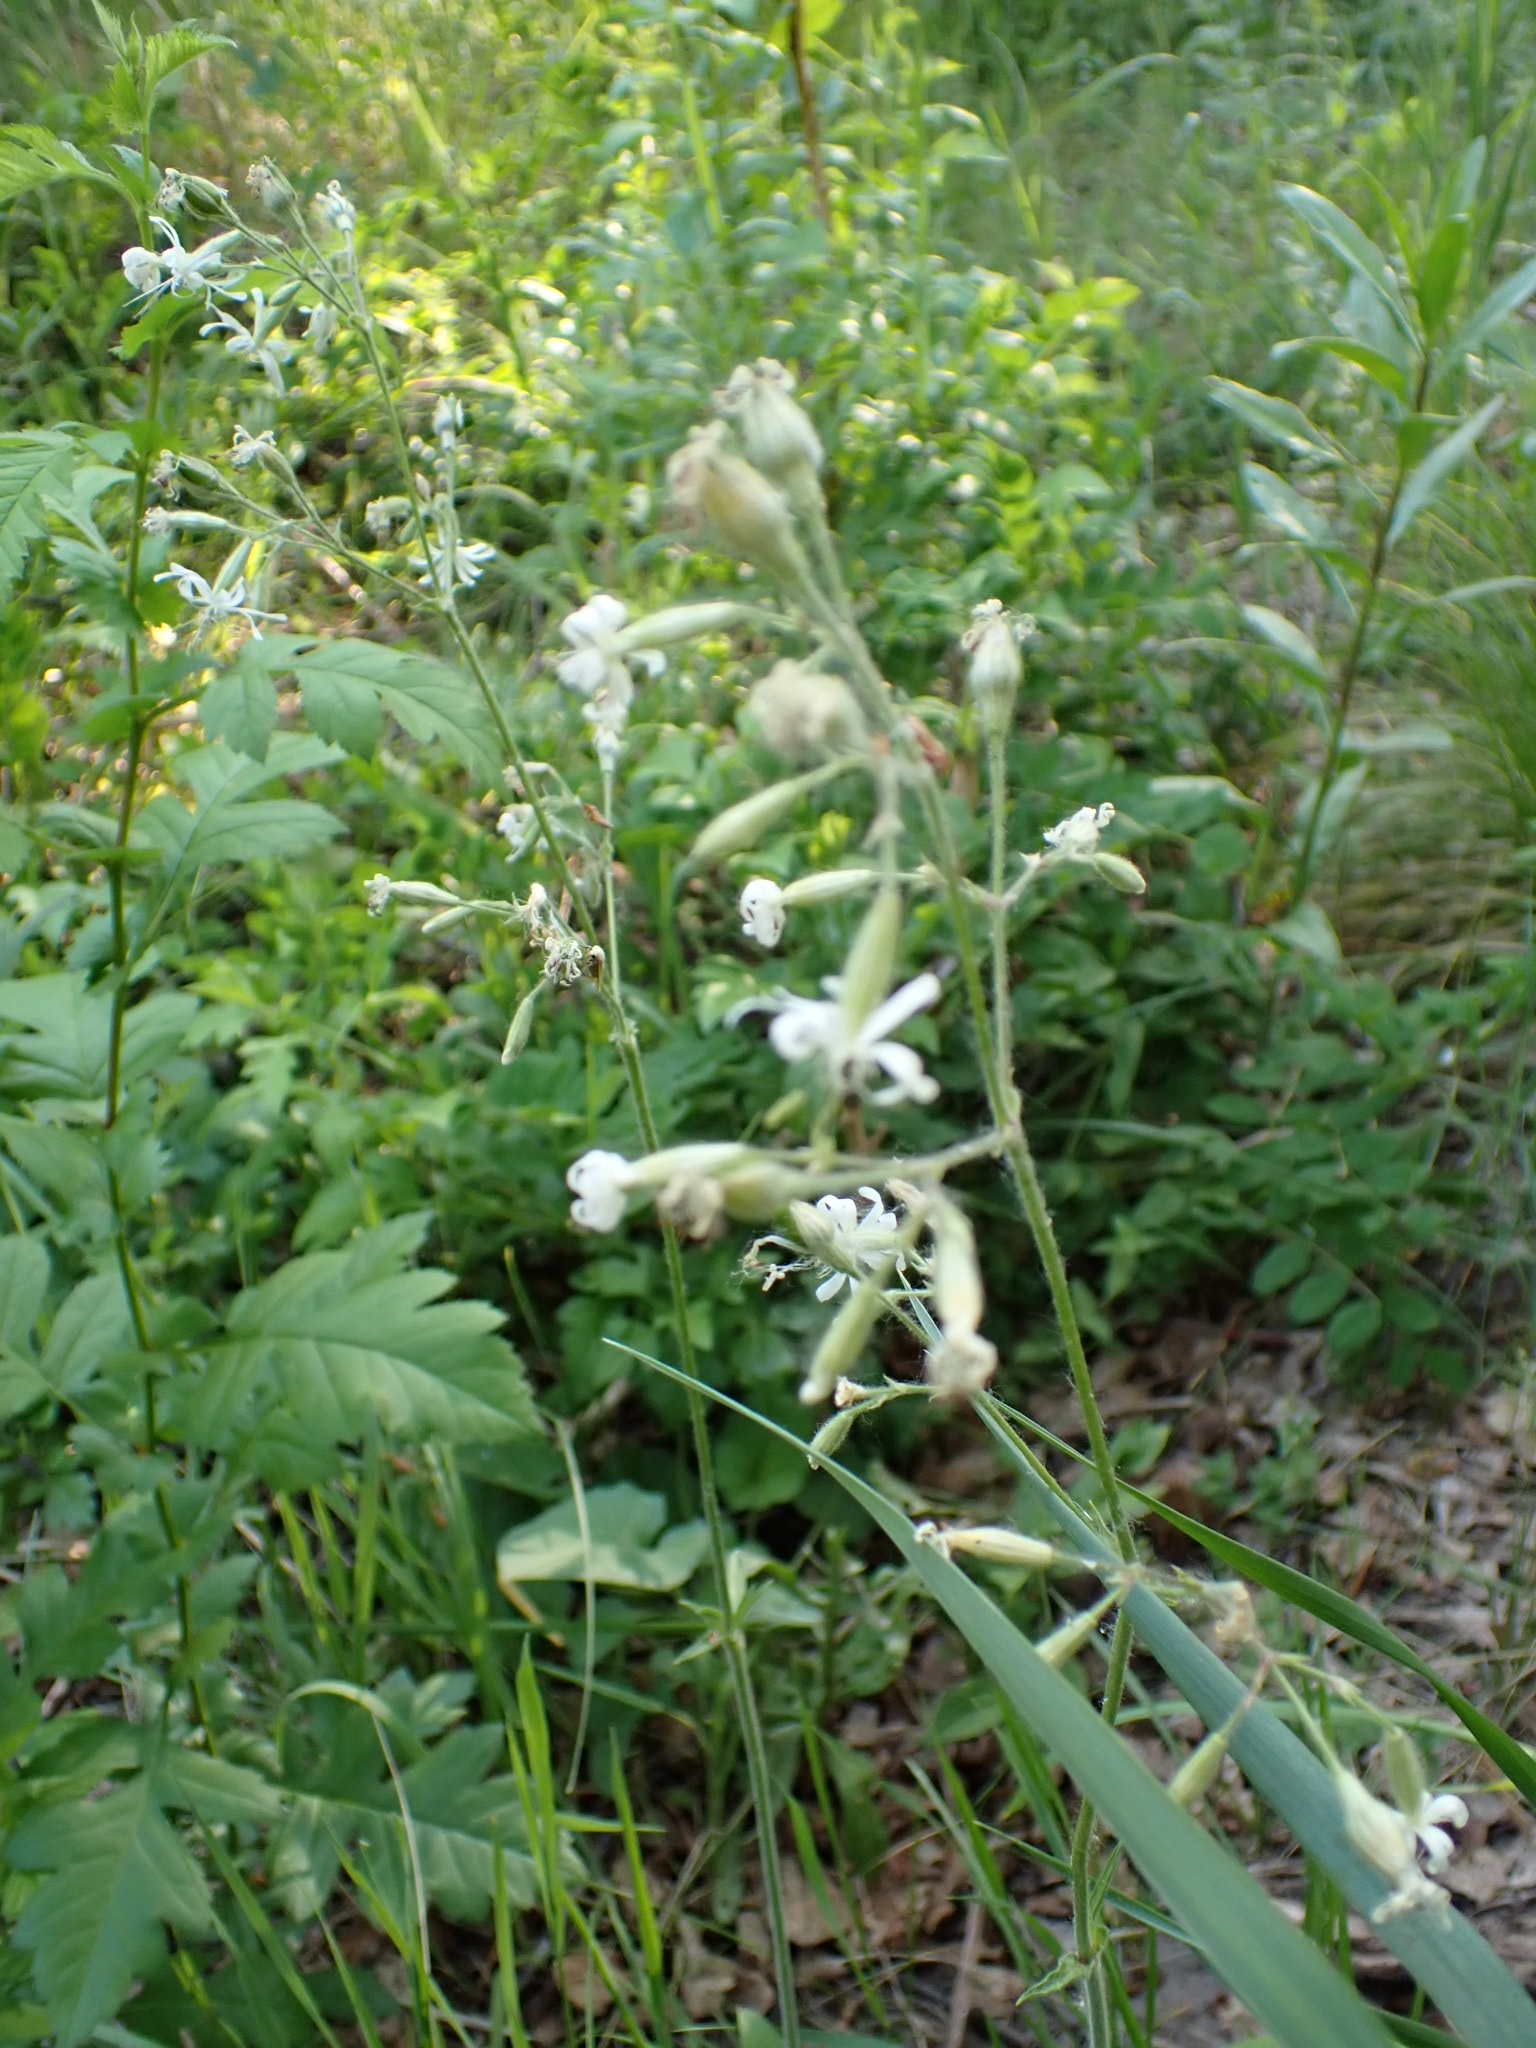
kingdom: Plantae
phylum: Tracheophyta
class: Magnoliopsida
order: Caryophyllales
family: Caryophyllaceae
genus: Silene
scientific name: Silene nutans
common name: Nottingham catchfly
